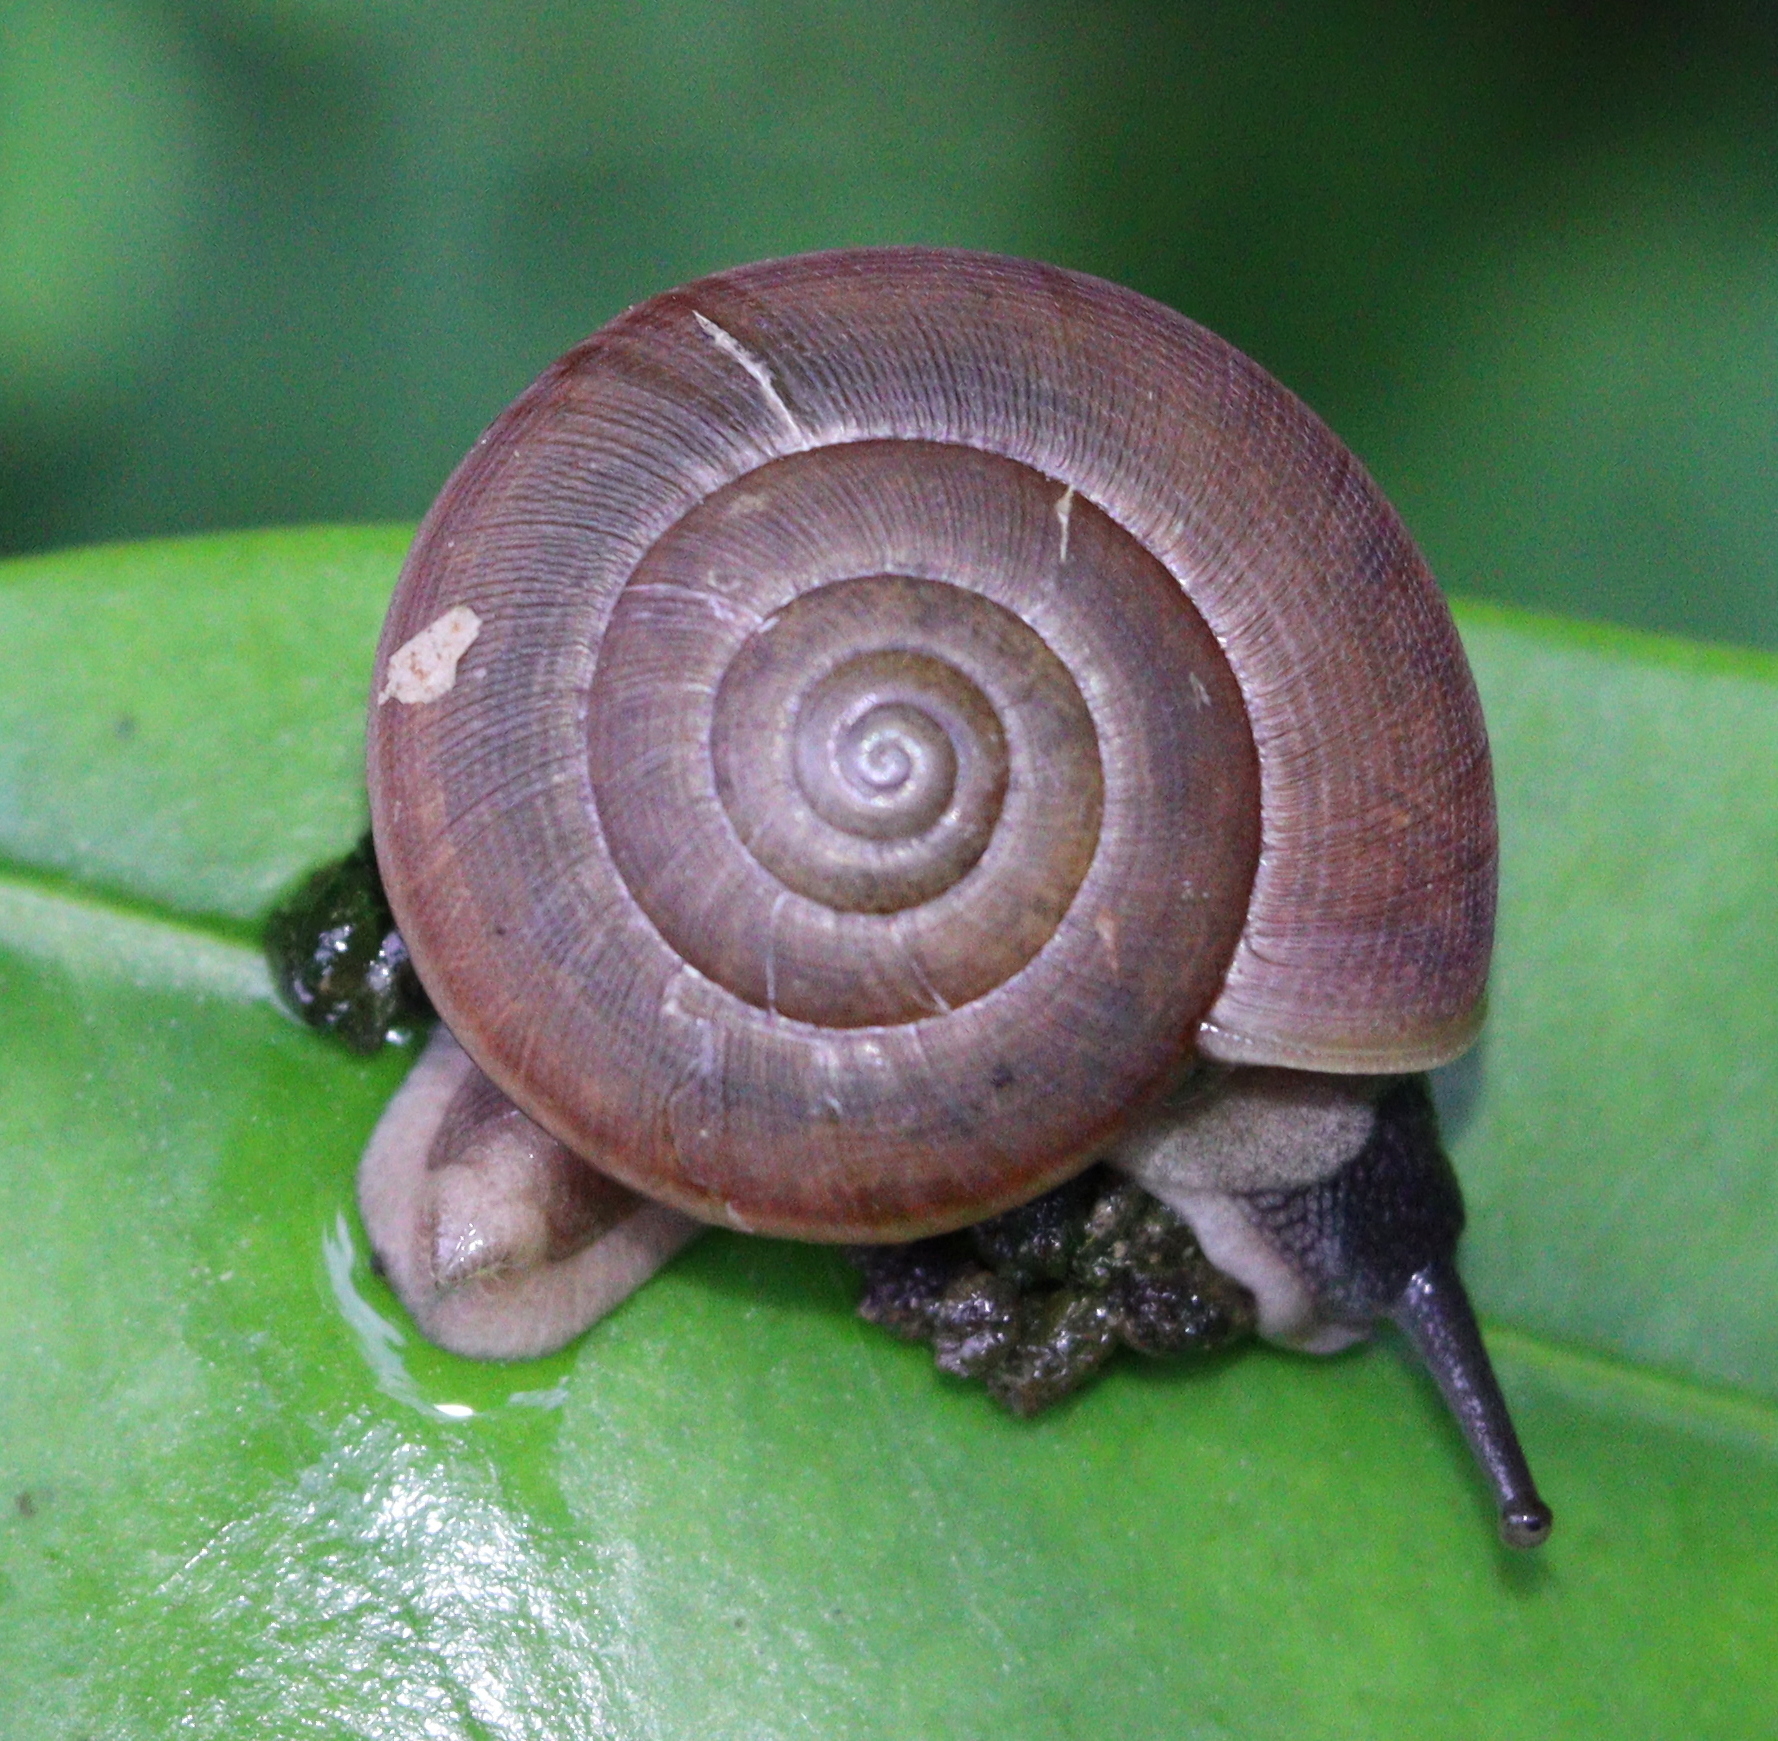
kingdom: Animalia
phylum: Mollusca
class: Gastropoda
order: Stylommatophora
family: Ariophantidae
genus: Sarika
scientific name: Sarika siamensis
